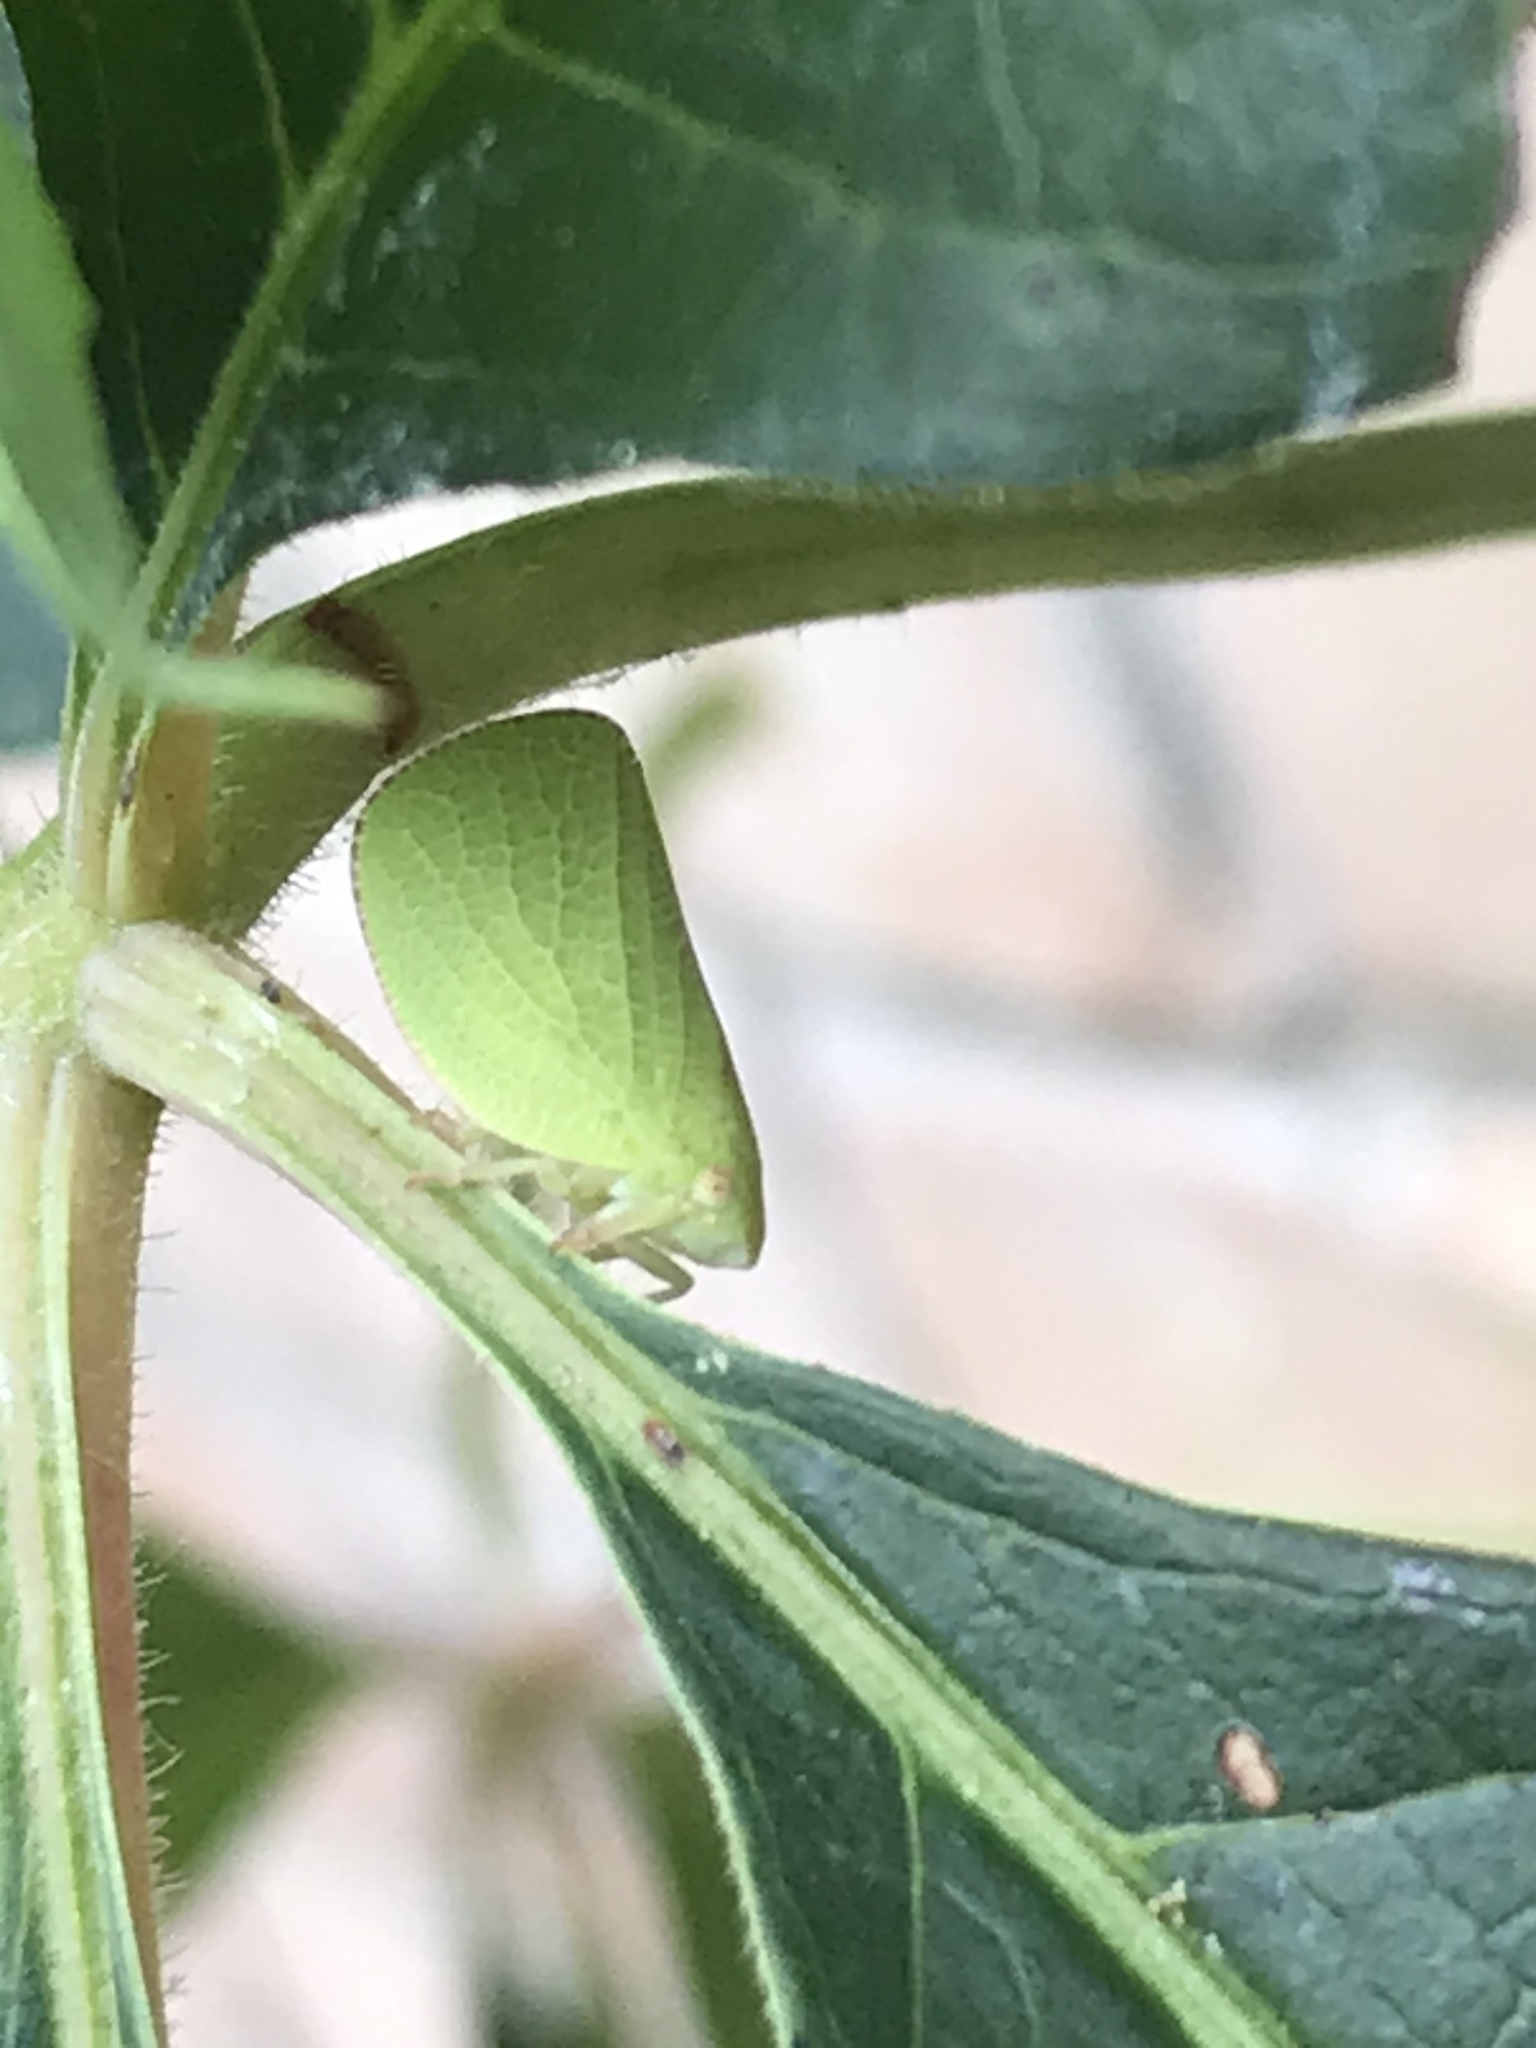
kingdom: Animalia
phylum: Arthropoda
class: Insecta
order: Hemiptera
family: Acanaloniidae
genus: Acanalonia
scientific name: Acanalonia conica
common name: Green cone-headed planthopper
